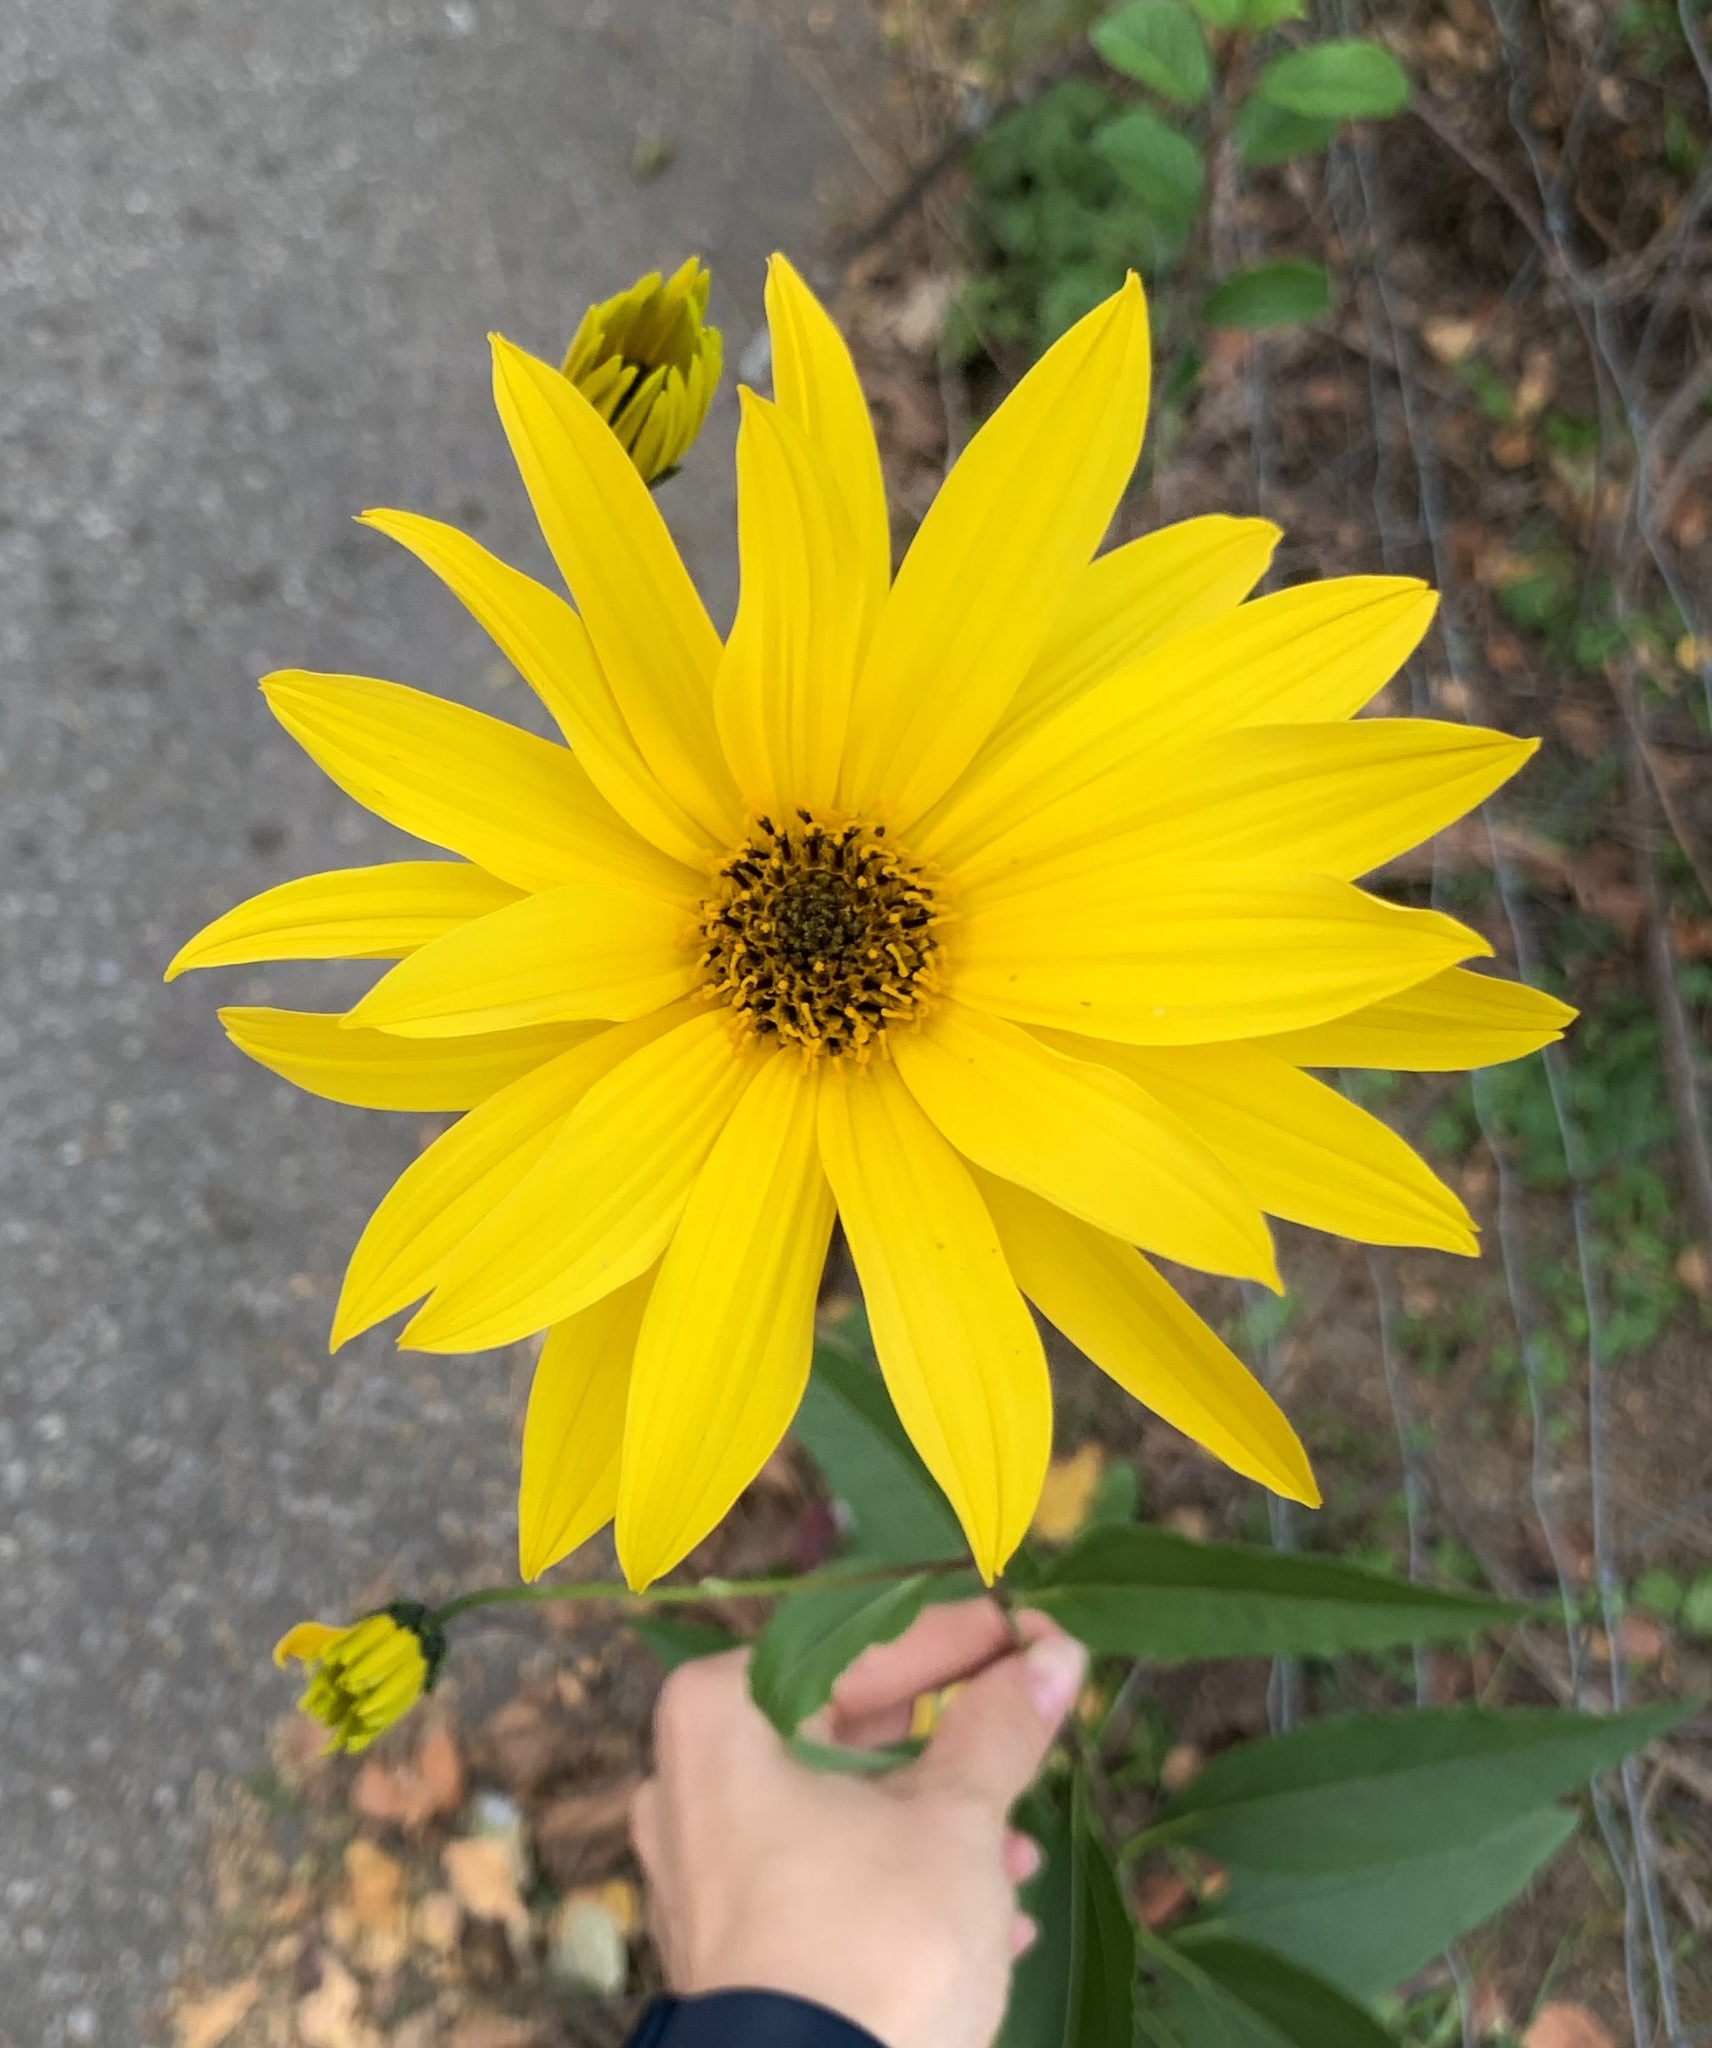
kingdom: Plantae
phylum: Tracheophyta
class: Magnoliopsida
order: Asterales
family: Asteraceae
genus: Helianthus
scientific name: Helianthus tuberosus
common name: Jerusalem artichoke
